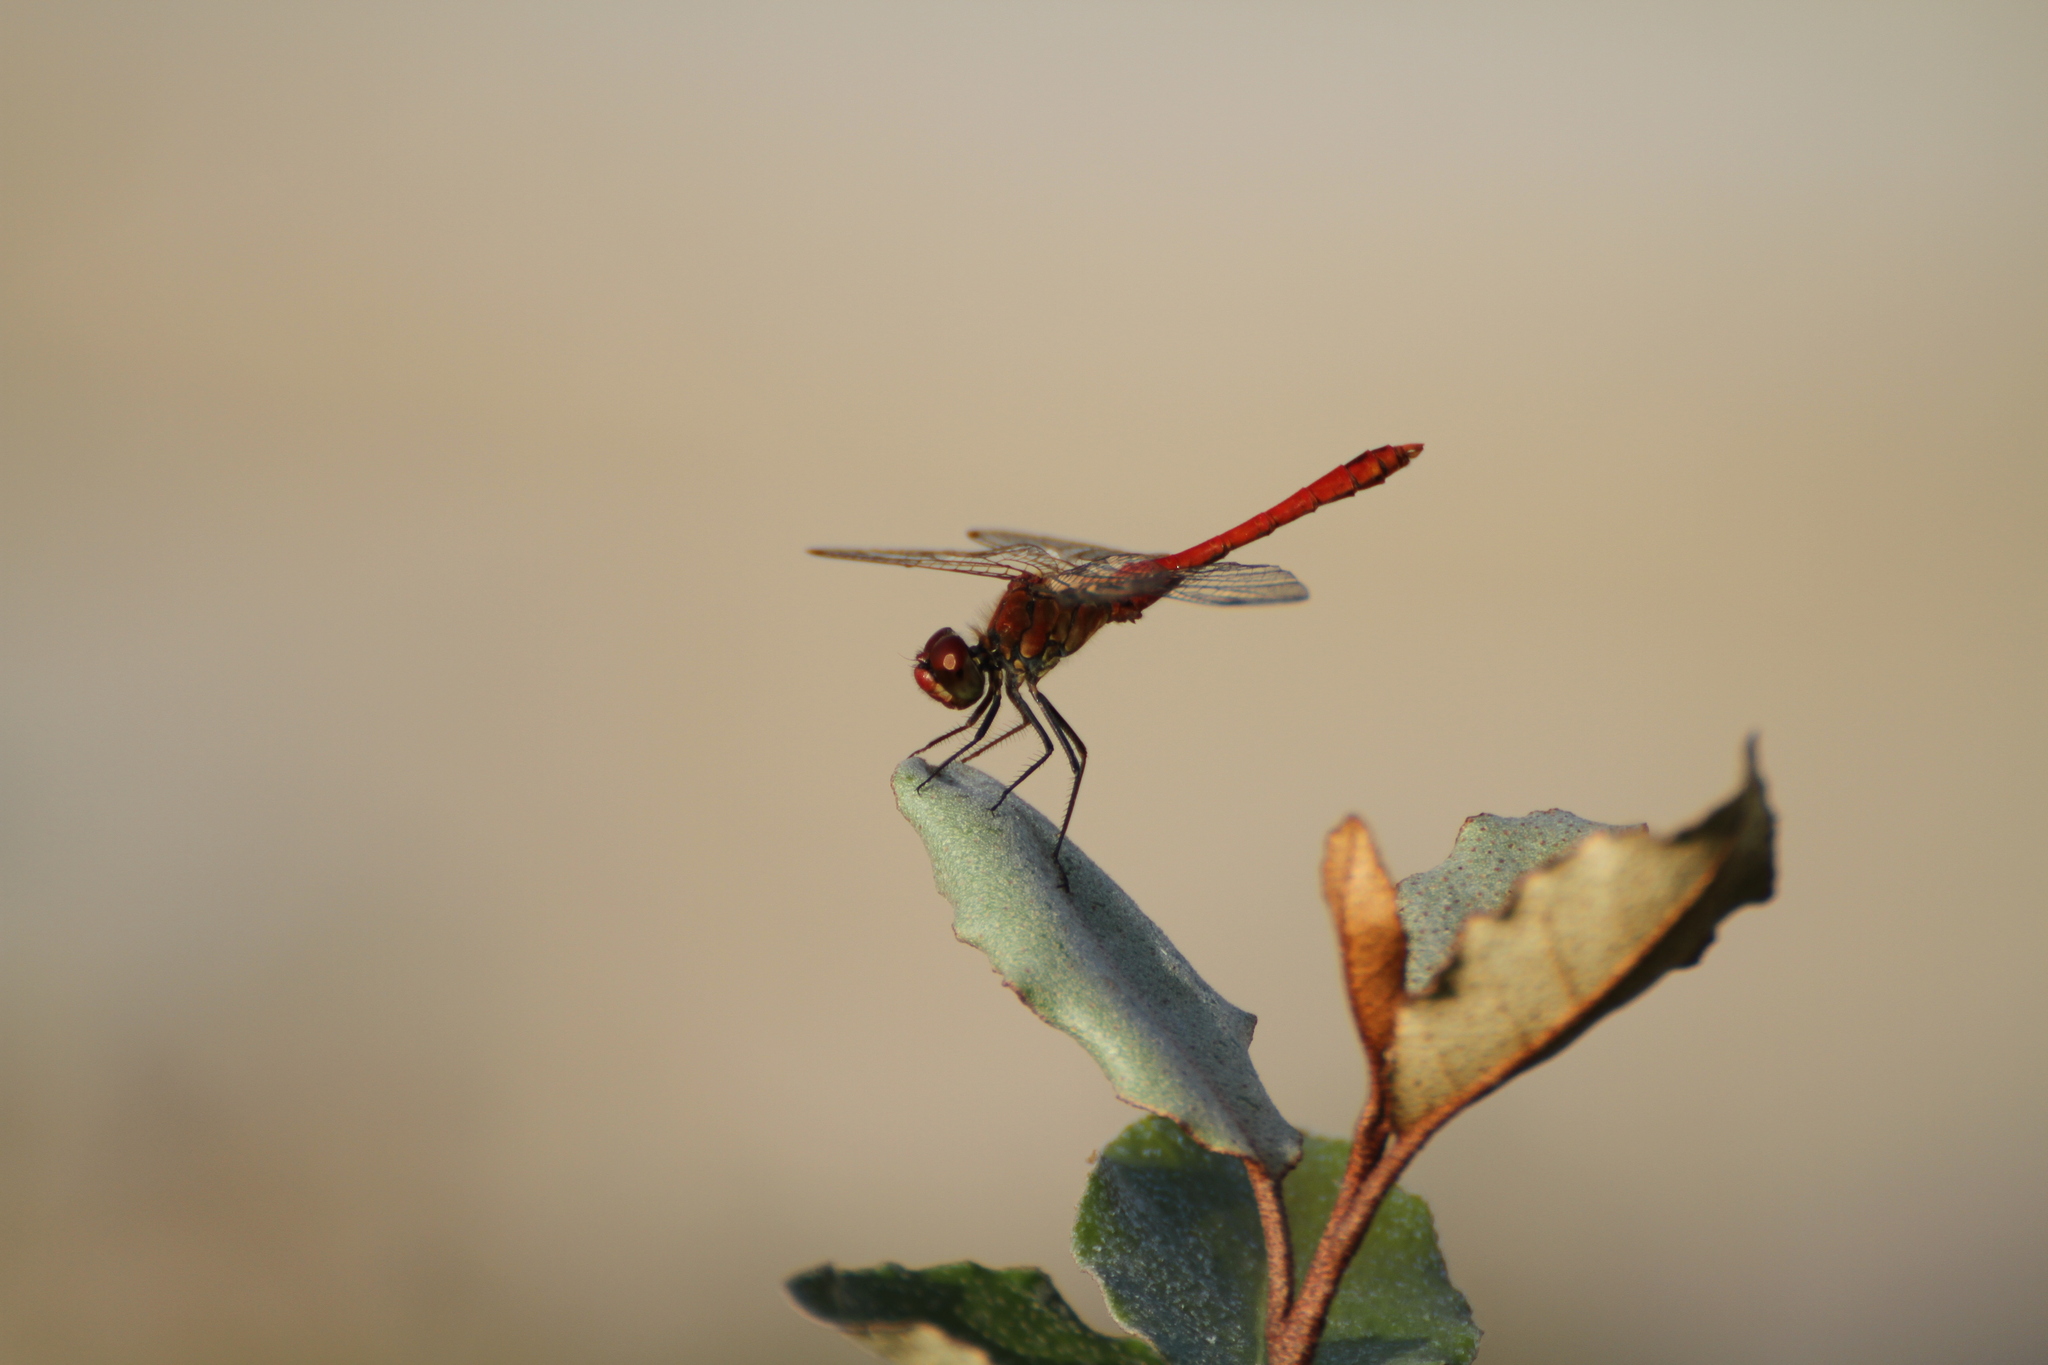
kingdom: Animalia
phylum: Arthropoda
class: Insecta
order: Odonata
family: Libellulidae
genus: Sympetrum
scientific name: Sympetrum sanguineum
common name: Ruddy darter
